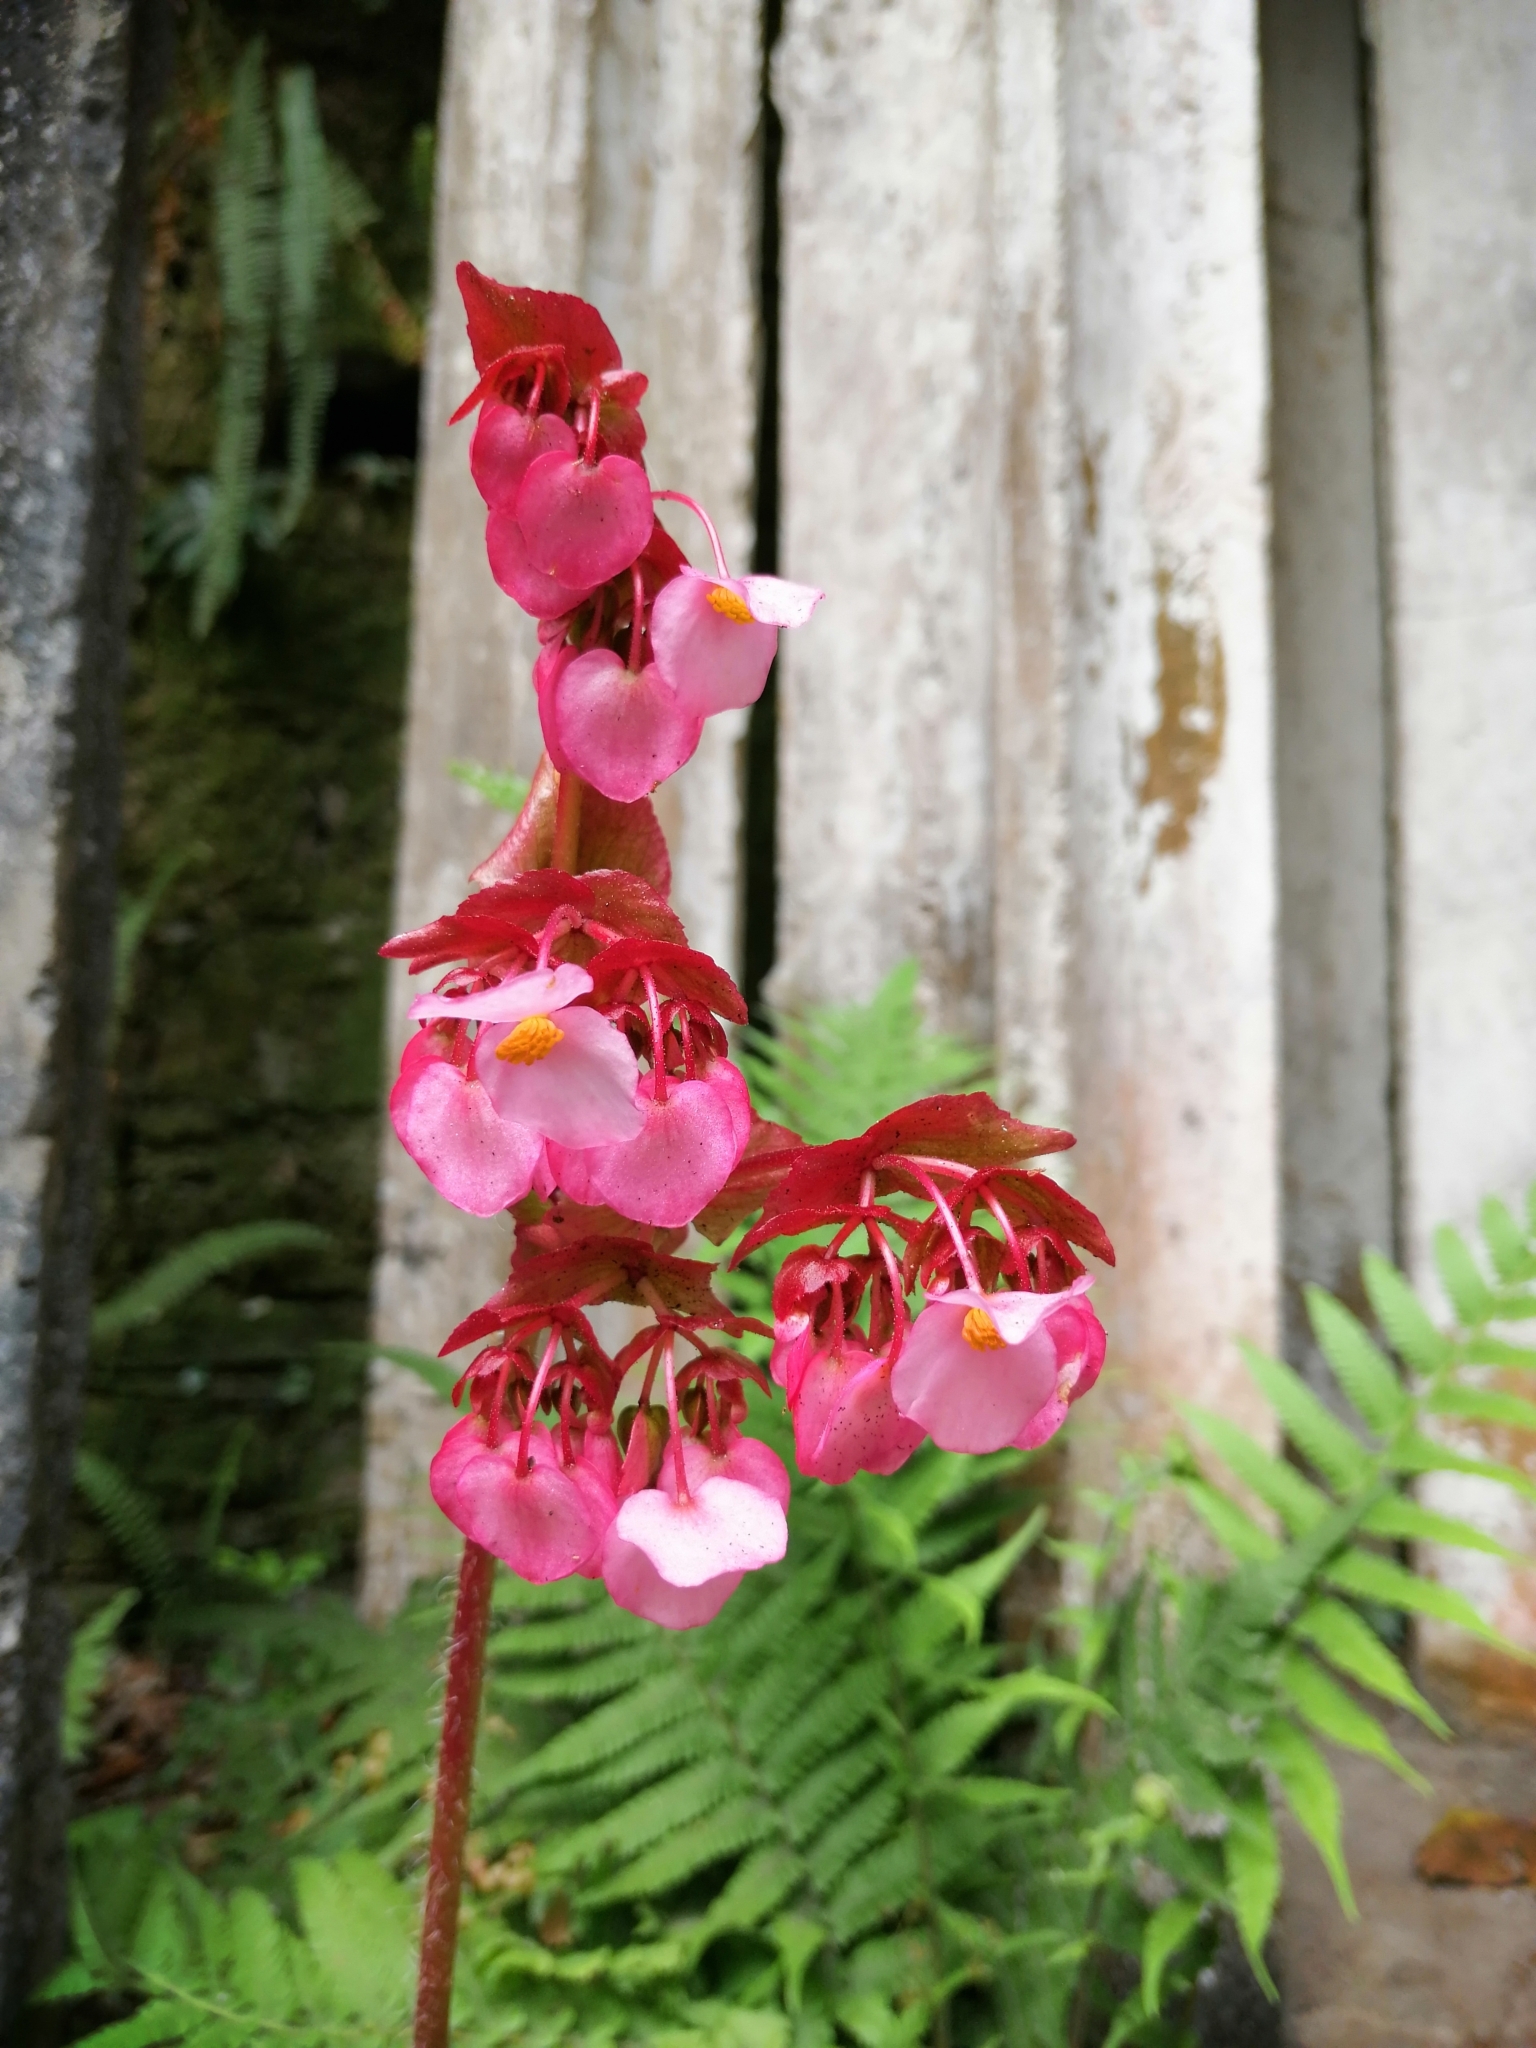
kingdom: Plantae
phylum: Tracheophyta
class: Magnoliopsida
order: Cucurbitales
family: Begoniaceae
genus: Begonia
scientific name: Begonia heracleifolia
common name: Star begonia
